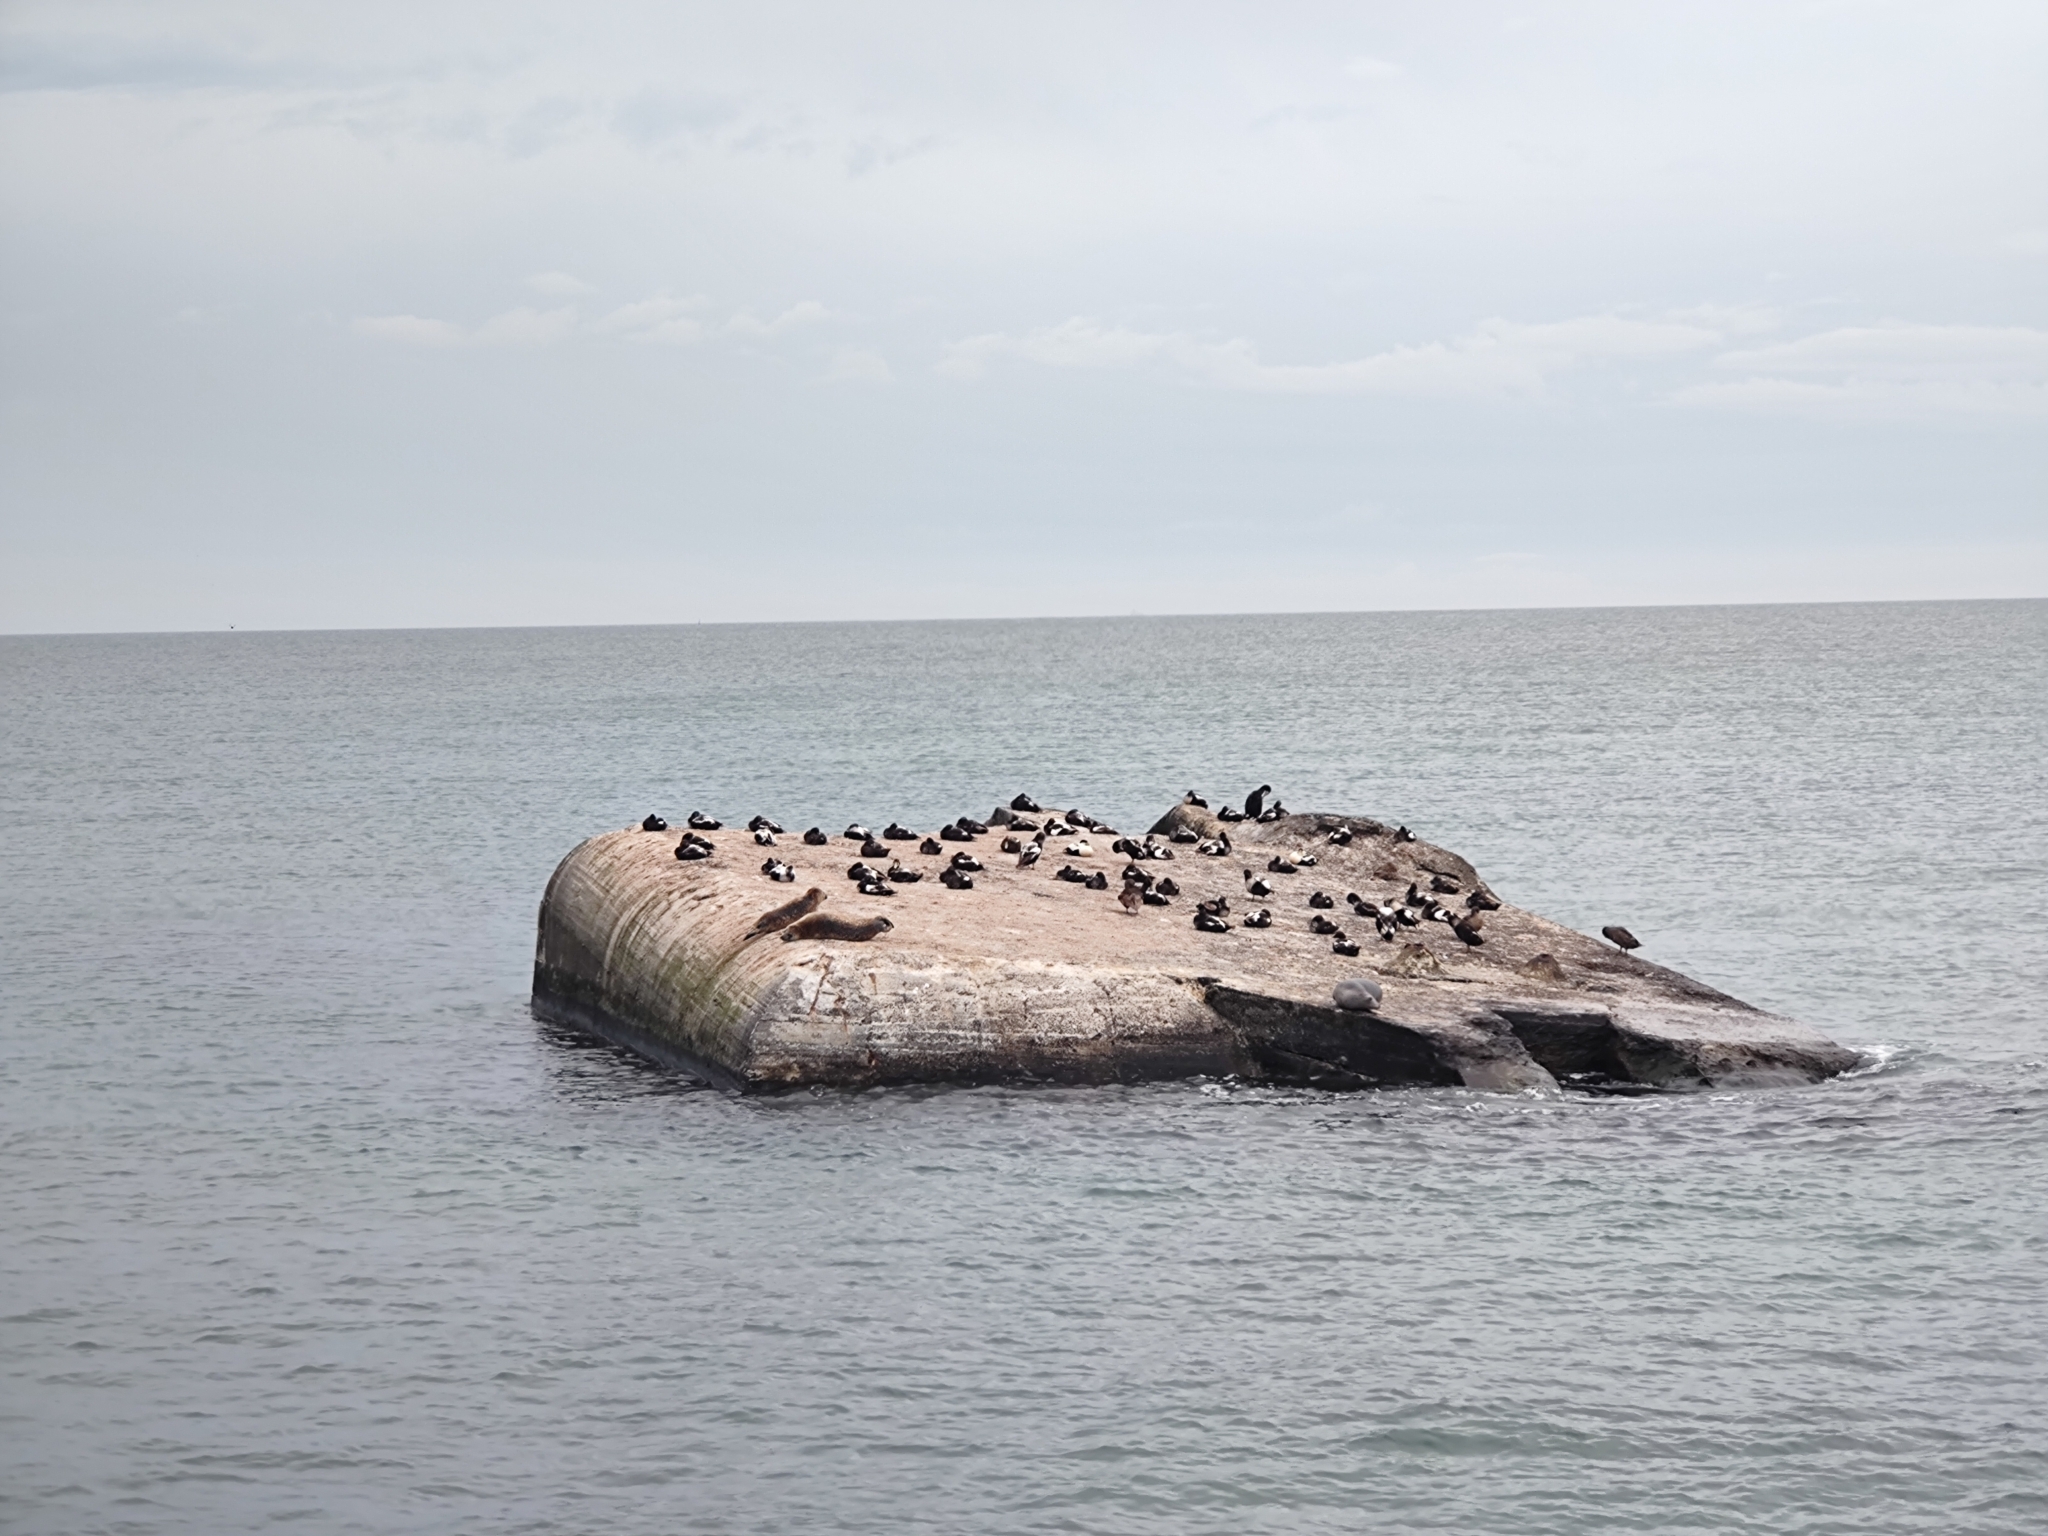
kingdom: Animalia
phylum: Chordata
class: Aves
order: Anseriformes
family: Anatidae
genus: Somateria
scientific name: Somateria mollissima
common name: Common eider
